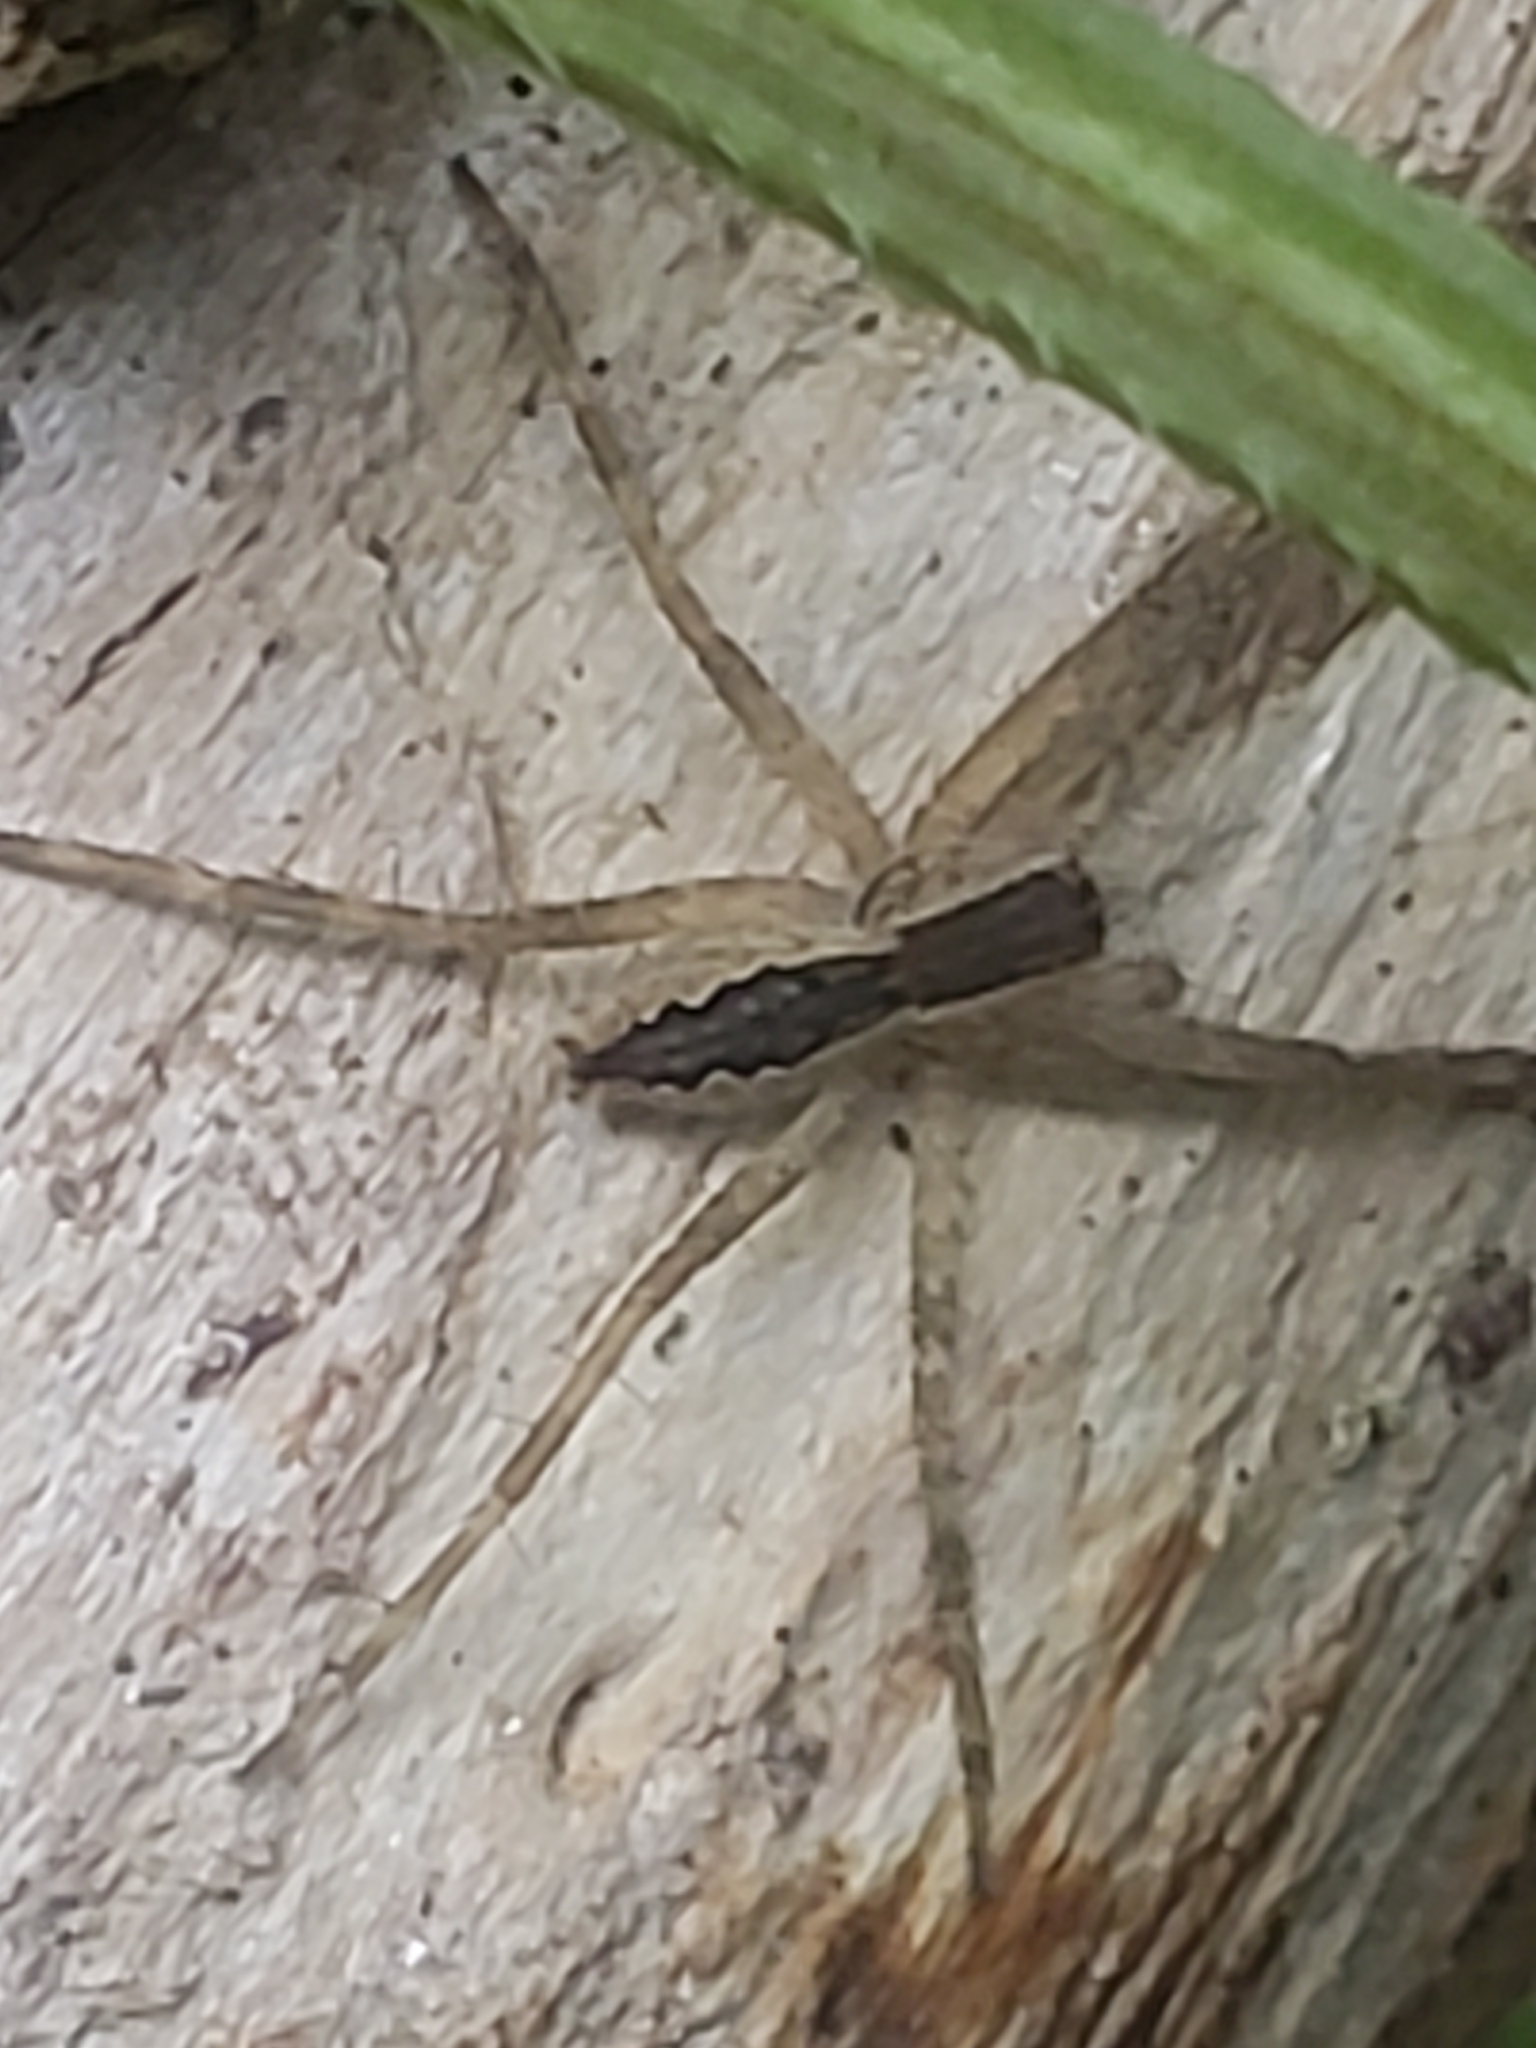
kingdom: Animalia
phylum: Arthropoda
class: Arachnida
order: Araneae
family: Pisauridae
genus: Pisaurina
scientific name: Pisaurina mira
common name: American nursery web spider
